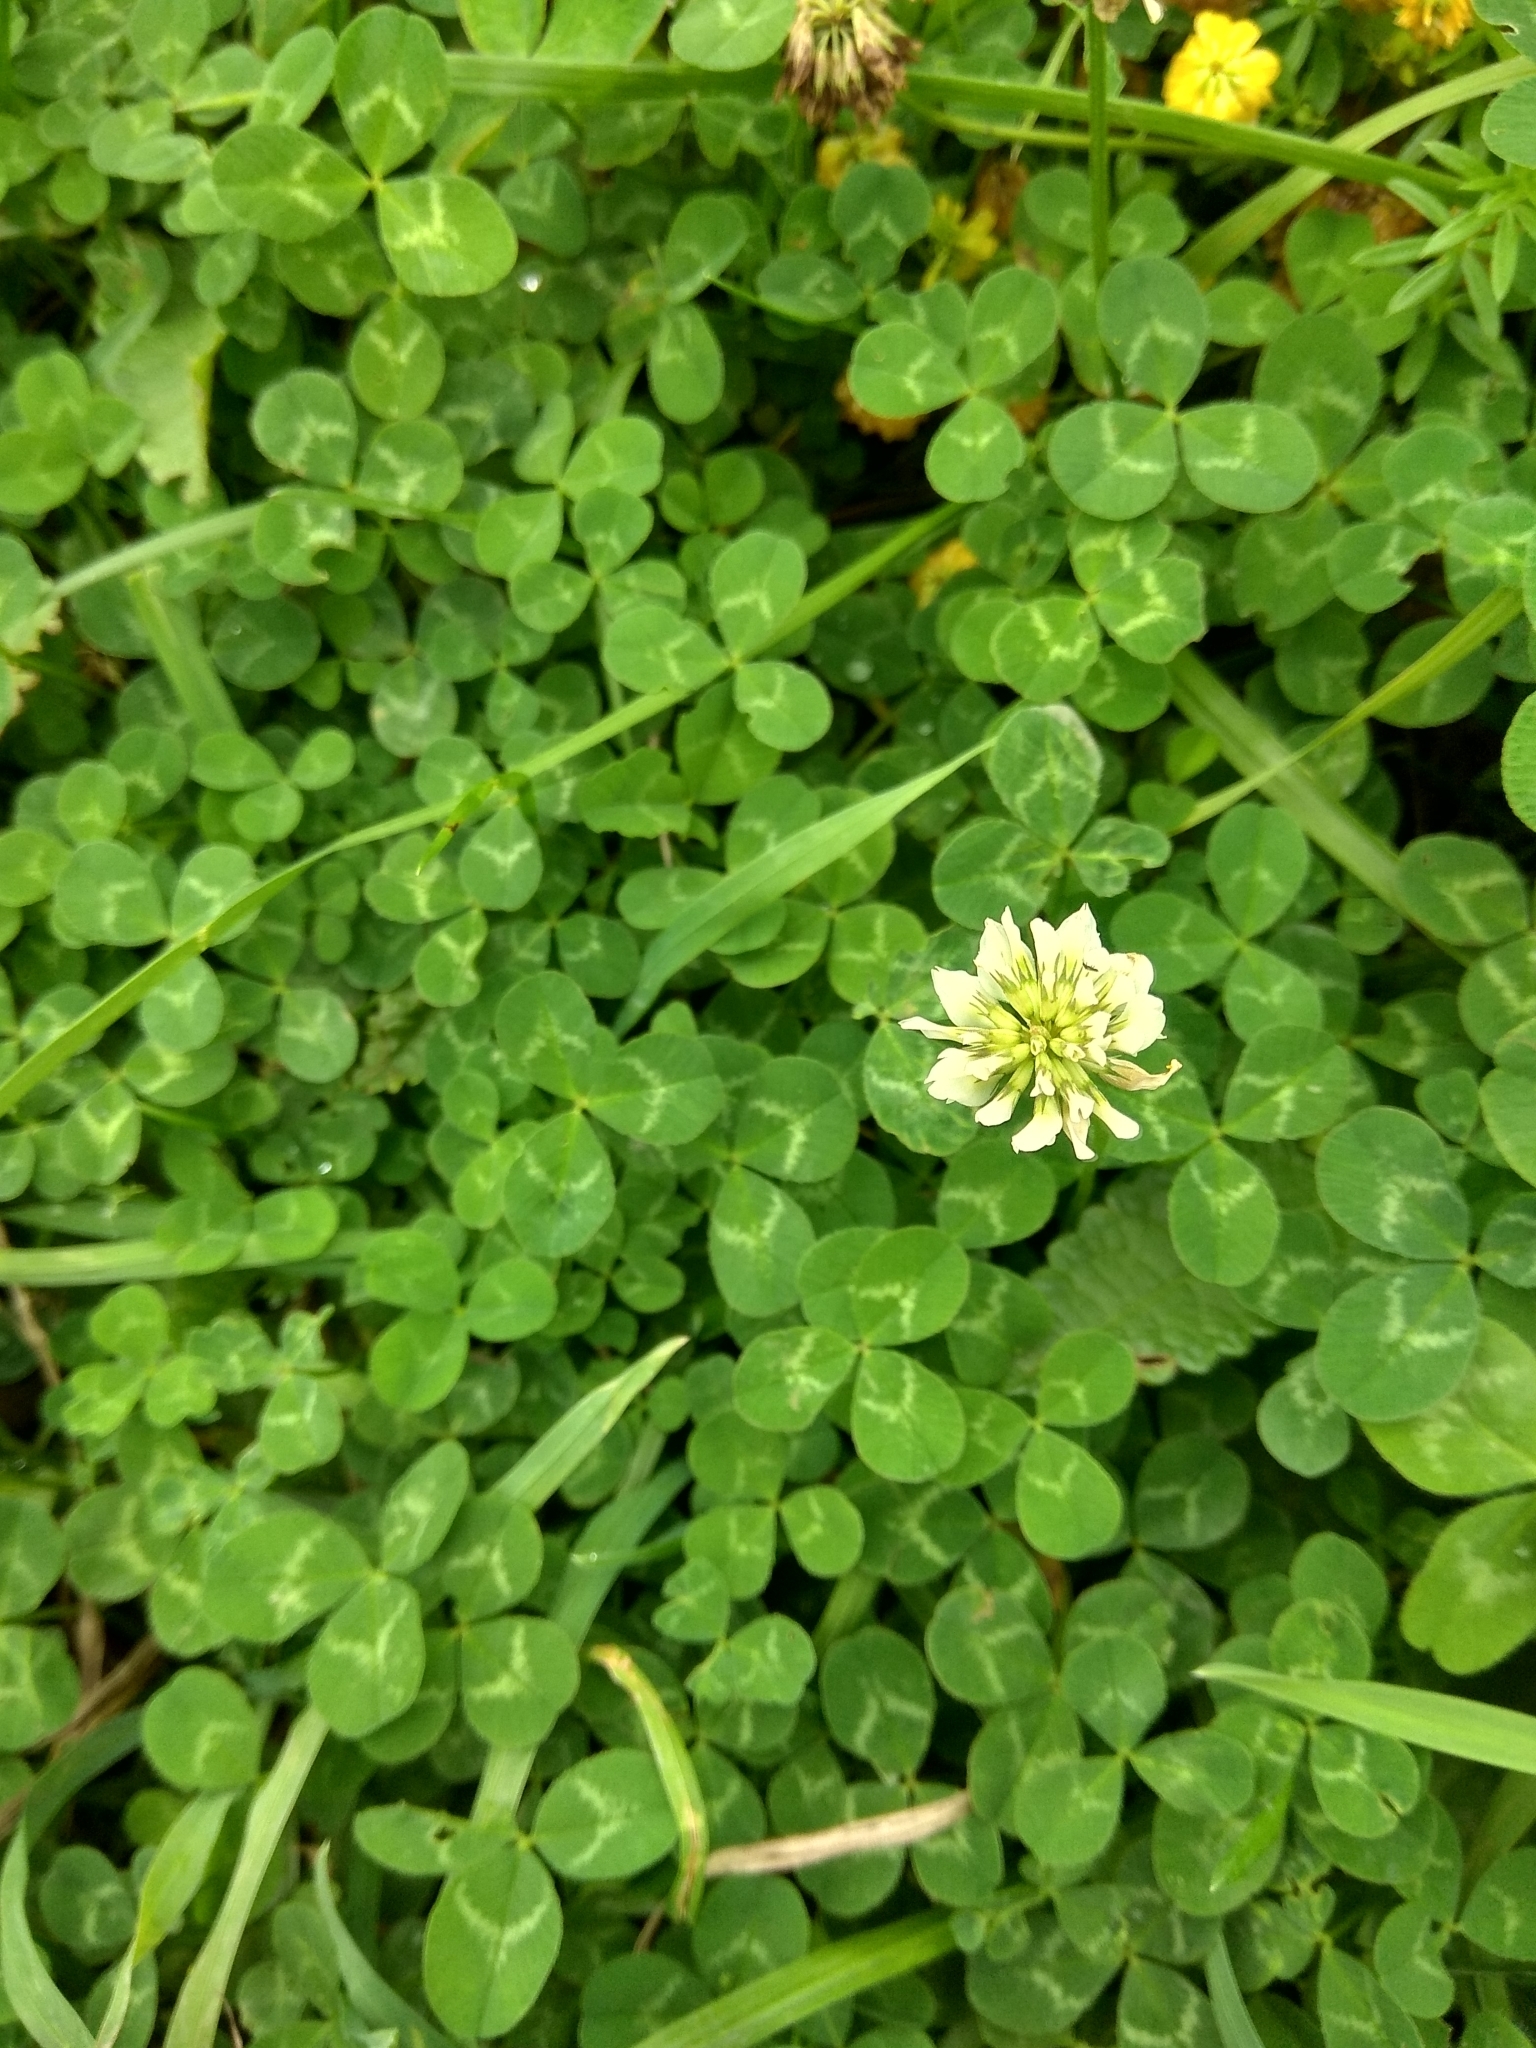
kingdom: Plantae
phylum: Tracheophyta
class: Magnoliopsida
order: Fabales
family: Fabaceae
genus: Trifolium
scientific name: Trifolium aureum
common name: Golden clover
